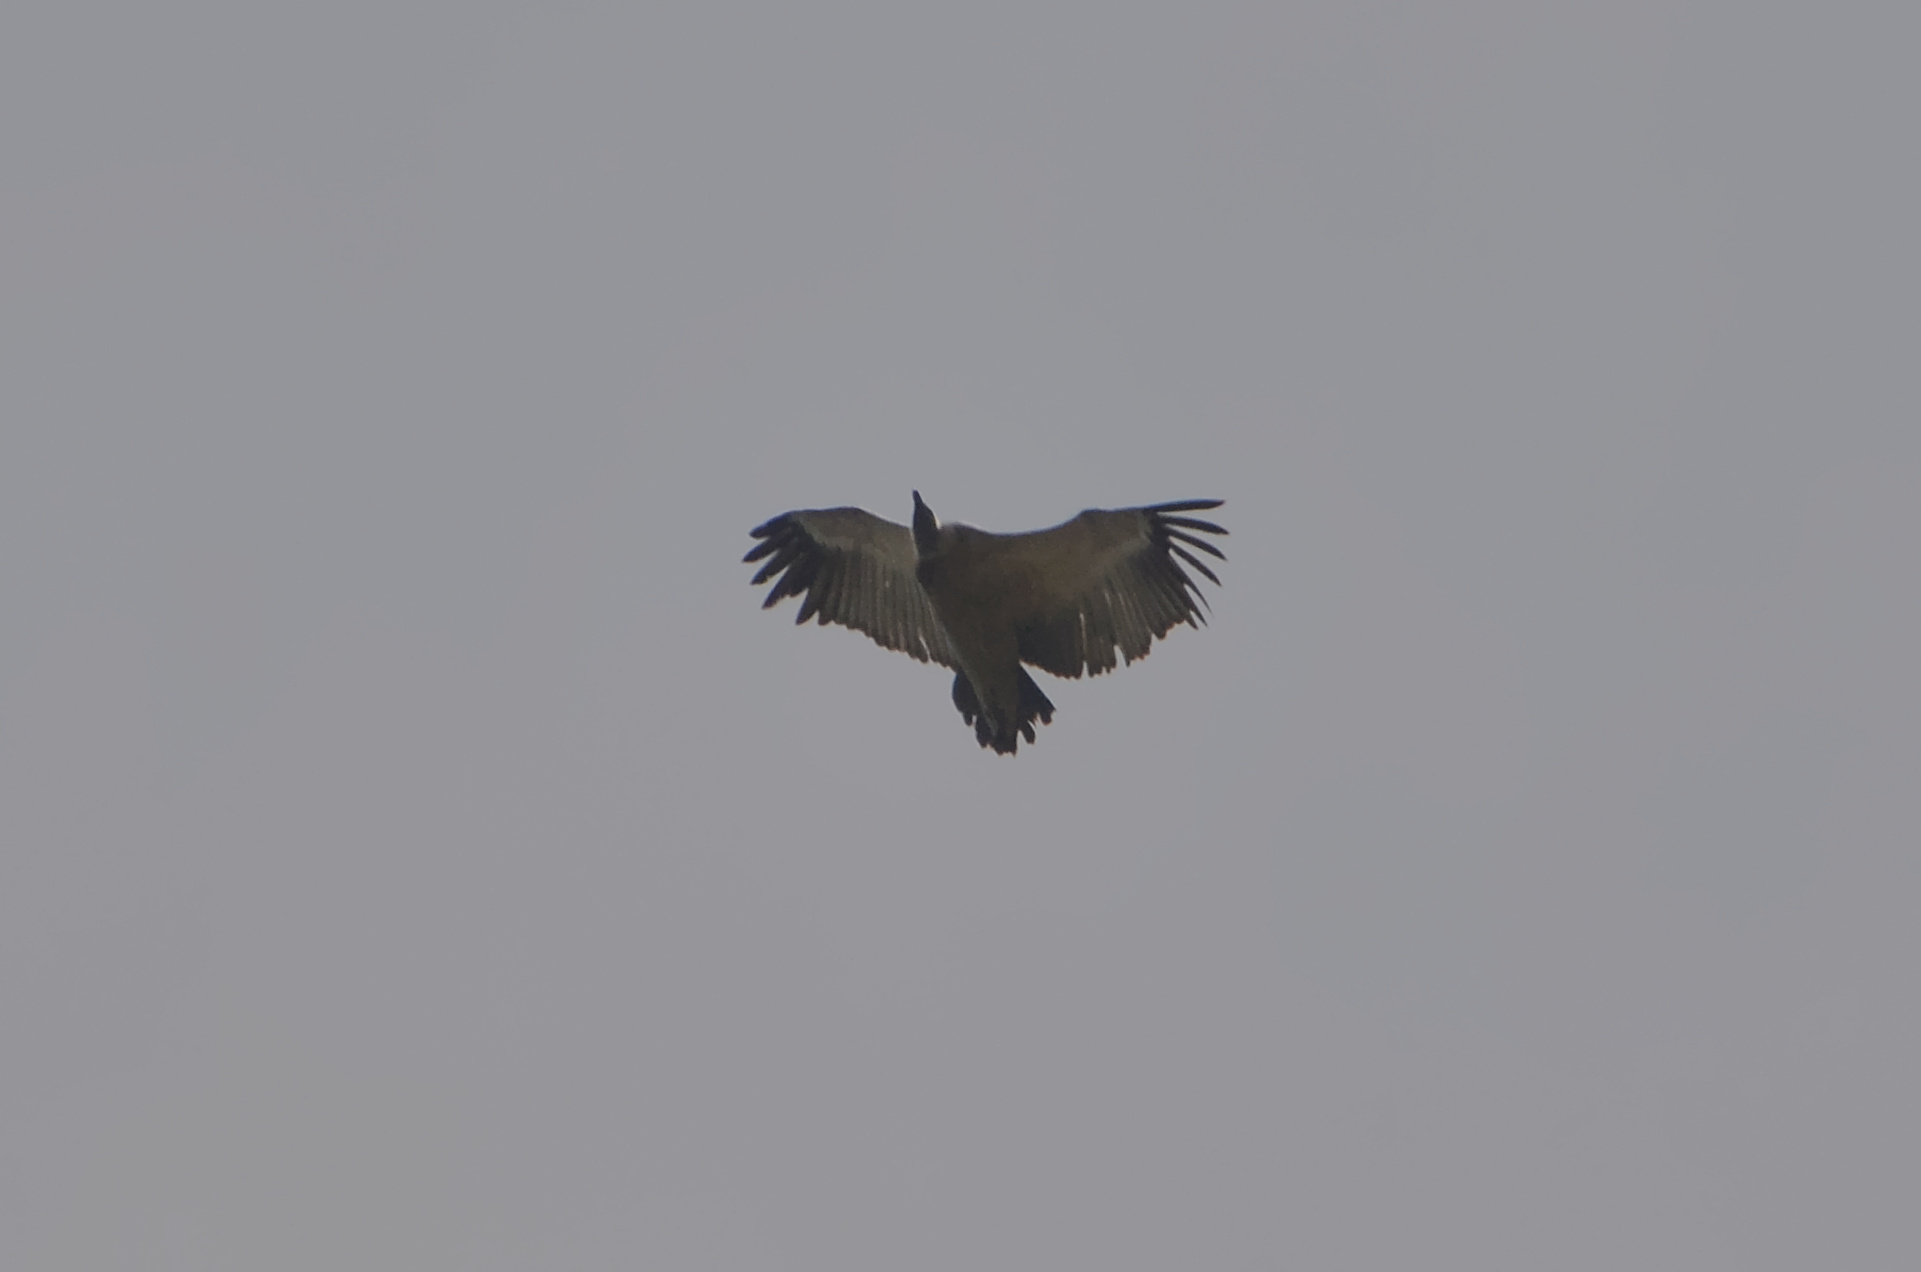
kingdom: Animalia
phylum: Chordata
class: Aves
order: Accipitriformes
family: Accipitridae
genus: Gyps
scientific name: Gyps coprotheres
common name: Cape vulture
